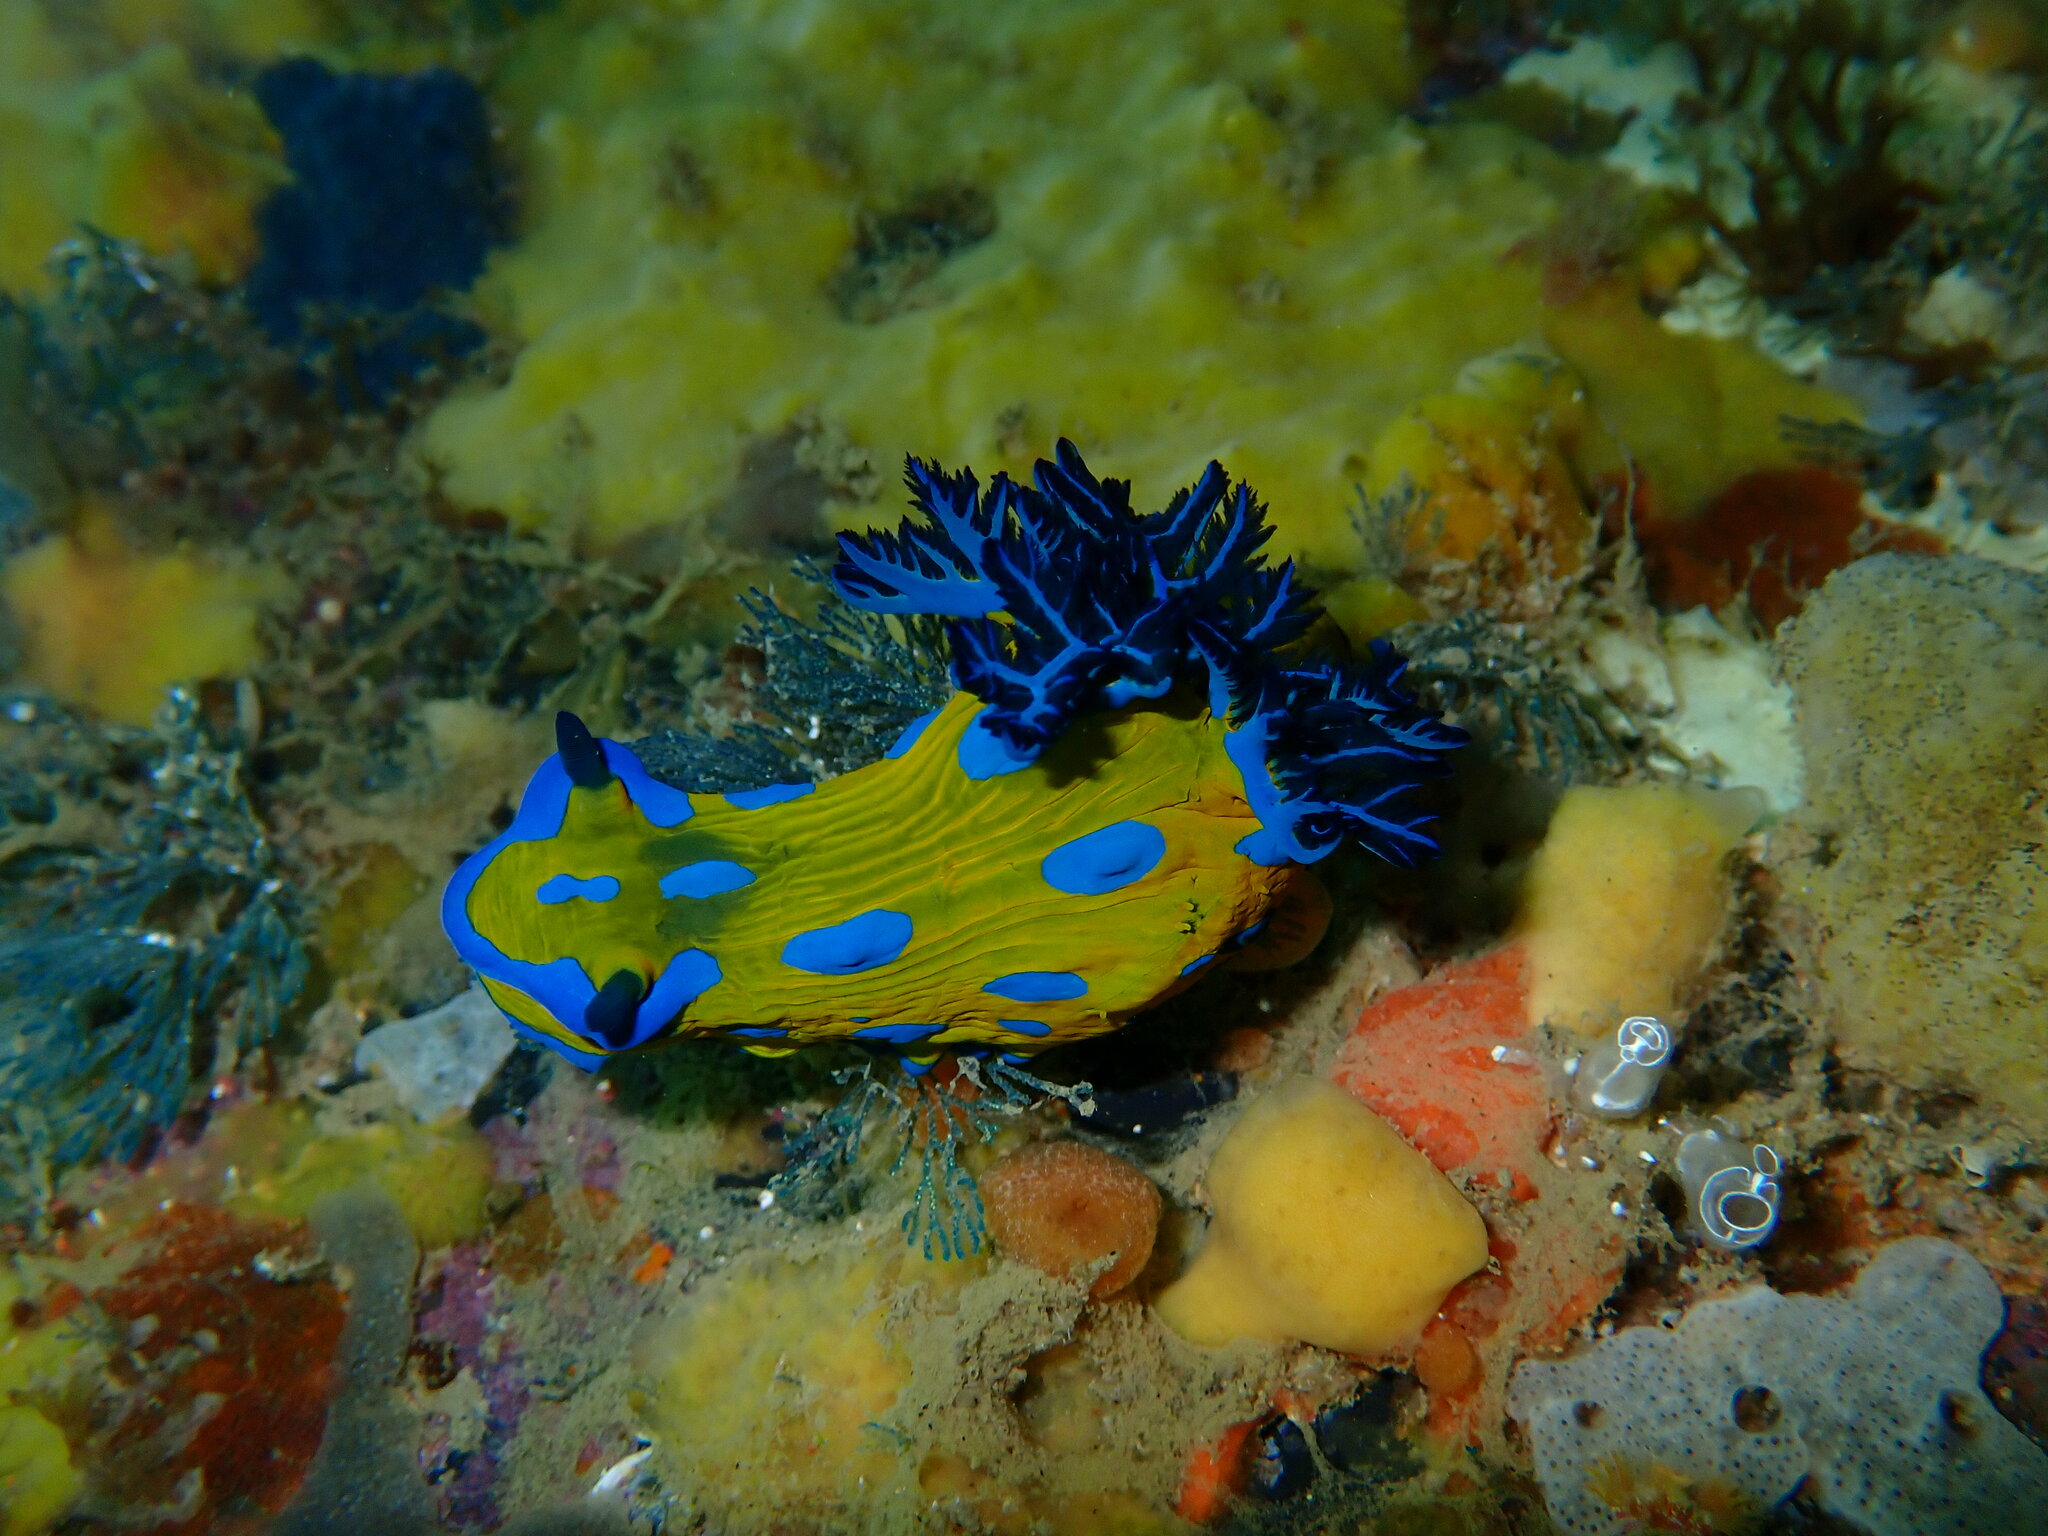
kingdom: Animalia
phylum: Mollusca
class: Gastropoda
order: Nudibranchia
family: Polyceridae
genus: Tambja
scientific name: Tambja verconis
